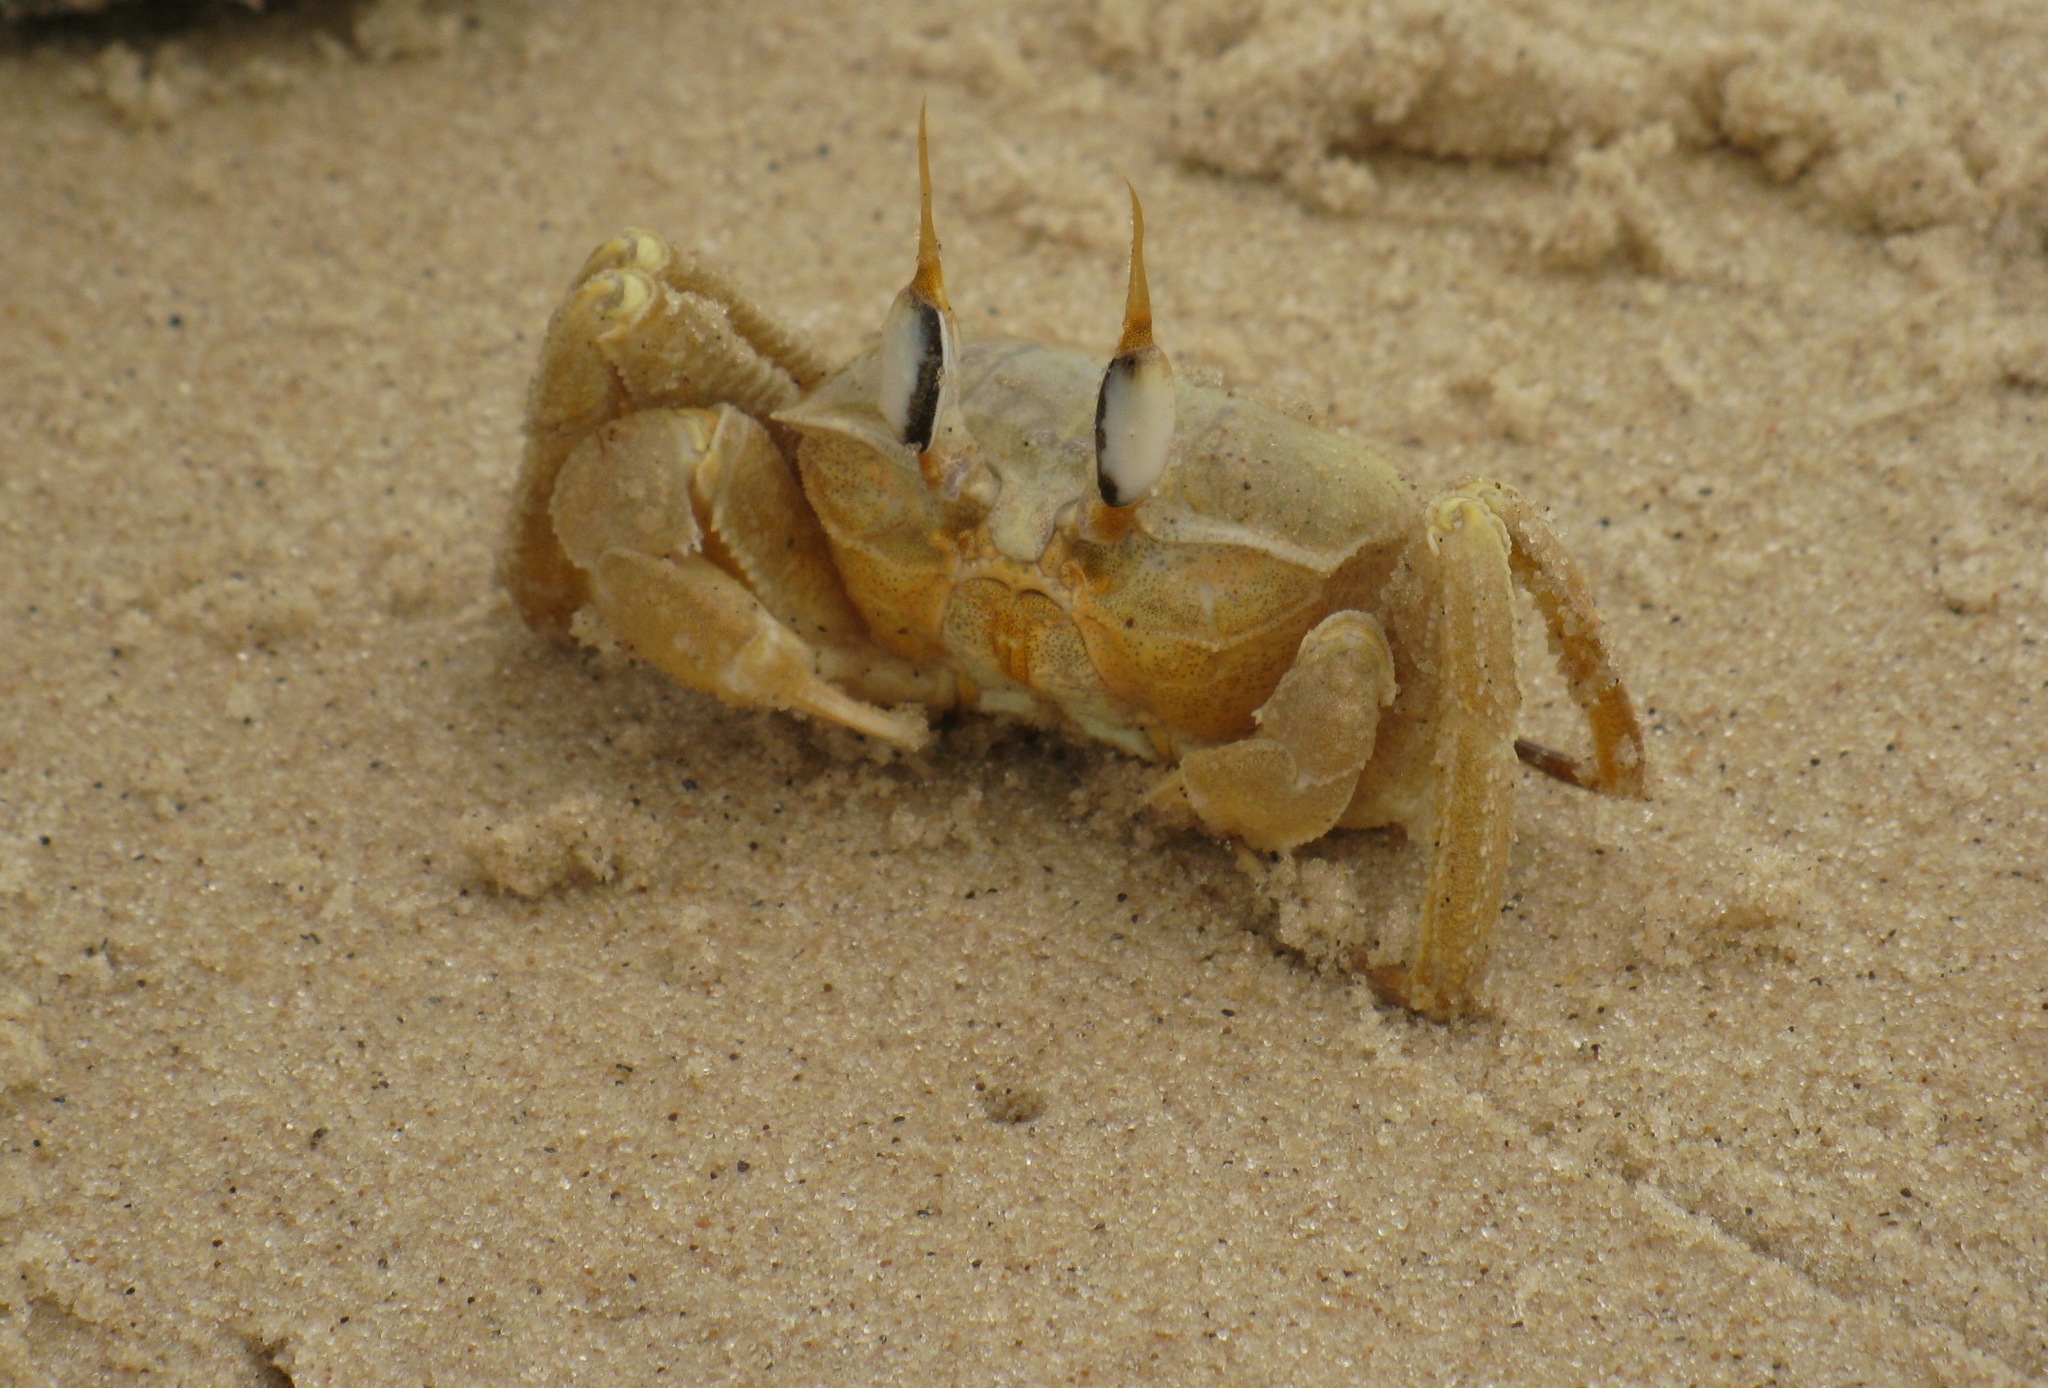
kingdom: Animalia
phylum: Arthropoda
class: Malacostraca
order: Decapoda
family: Ocypodidae
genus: Ocypode
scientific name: Ocypode cursor
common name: Tufted ghost crab
